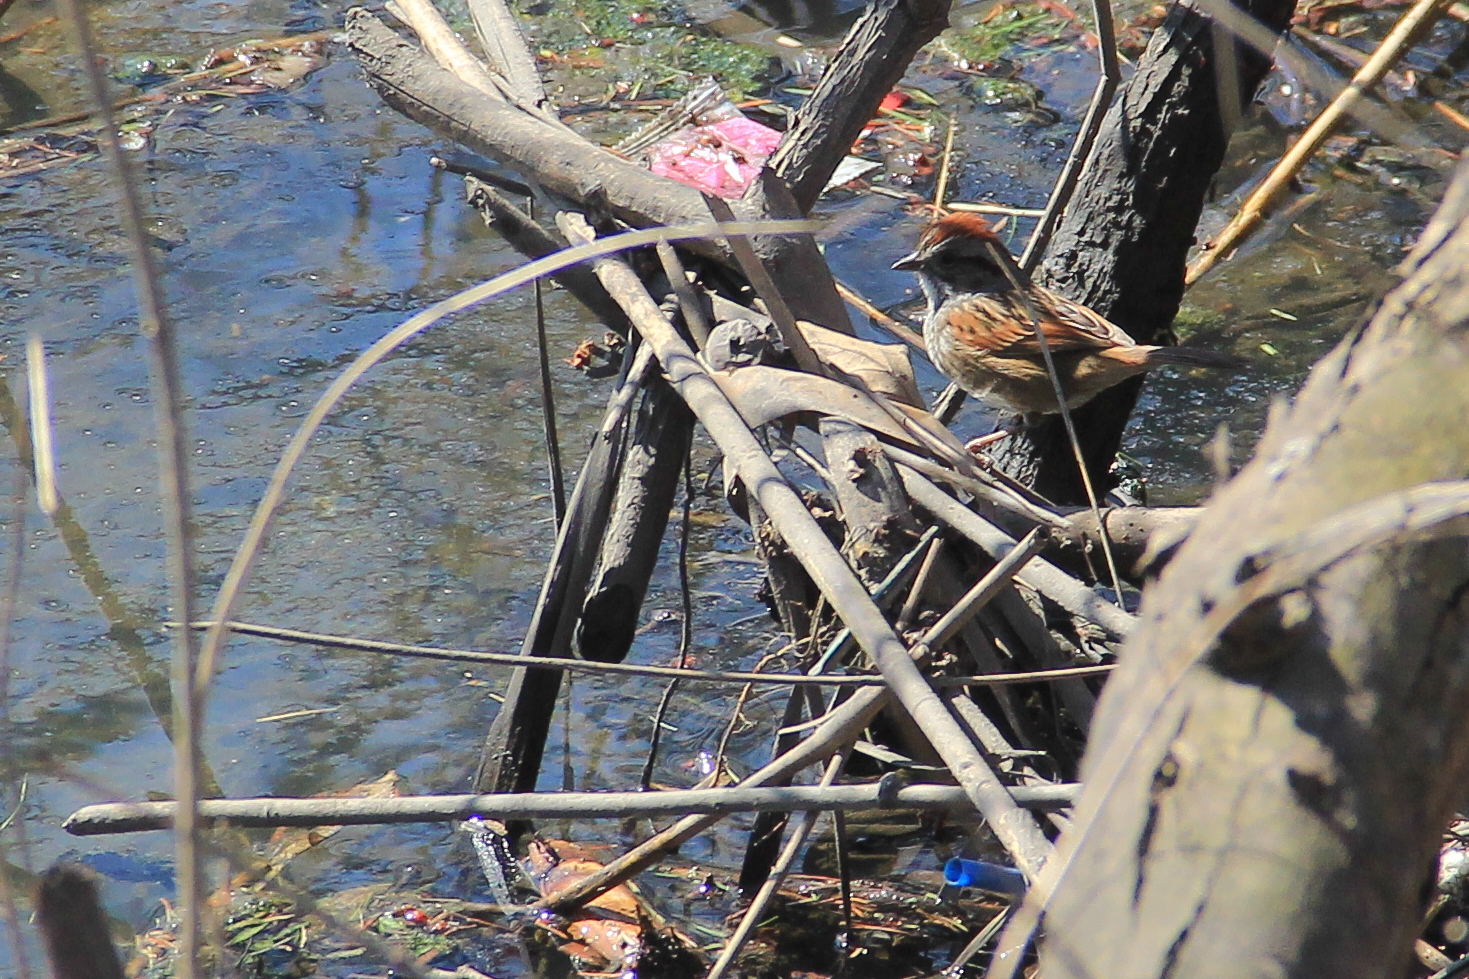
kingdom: Animalia
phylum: Chordata
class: Aves
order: Passeriformes
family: Passerellidae
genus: Melospiza
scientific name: Melospiza georgiana
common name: Swamp sparrow
